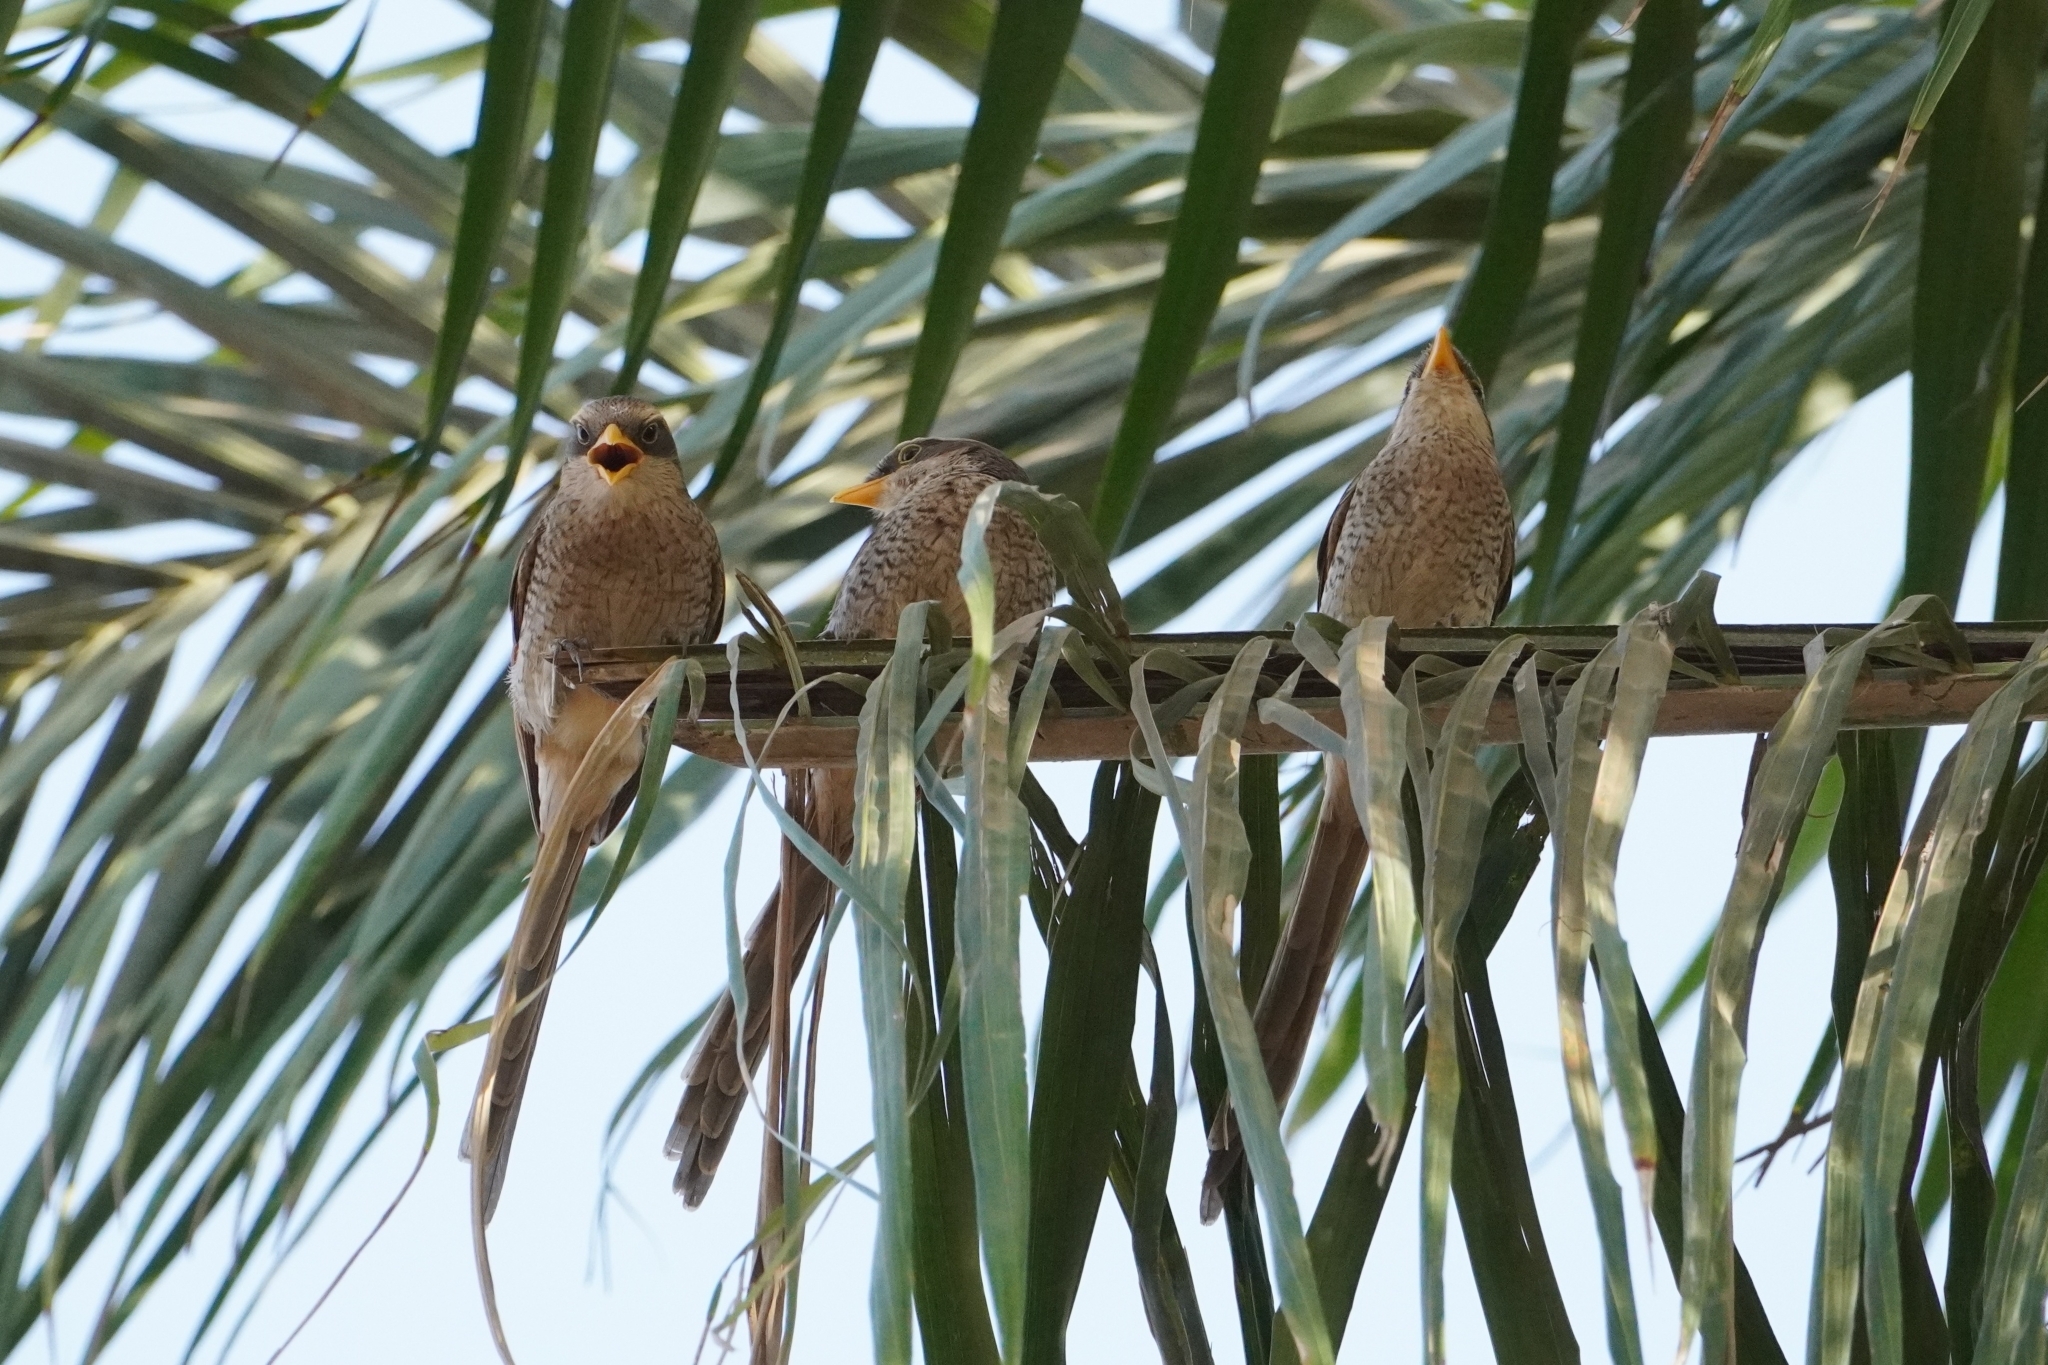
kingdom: Animalia
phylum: Chordata
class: Aves
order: Passeriformes
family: Laniidae
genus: Corvinella
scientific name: Corvinella corvina
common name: Yellow-billed shrike
